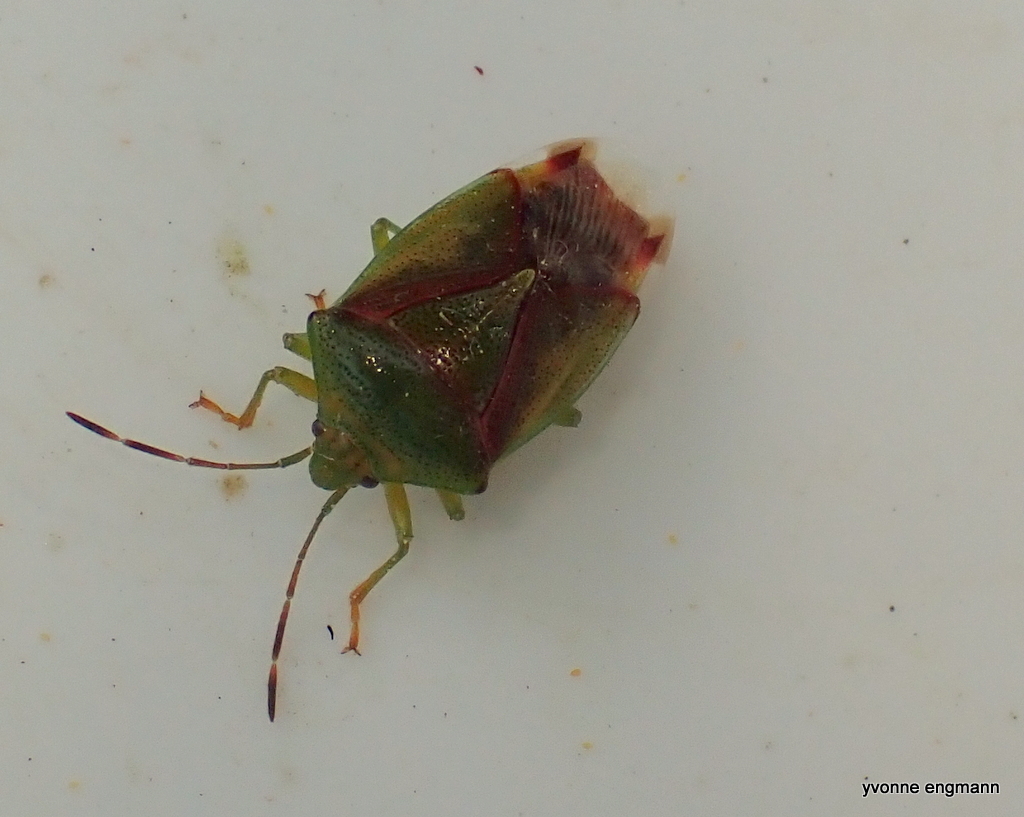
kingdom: Animalia
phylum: Arthropoda
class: Insecta
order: Hemiptera
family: Acanthosomatidae
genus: Elasmostethus
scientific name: Elasmostethus interstinctus
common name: Birch shieldbug
